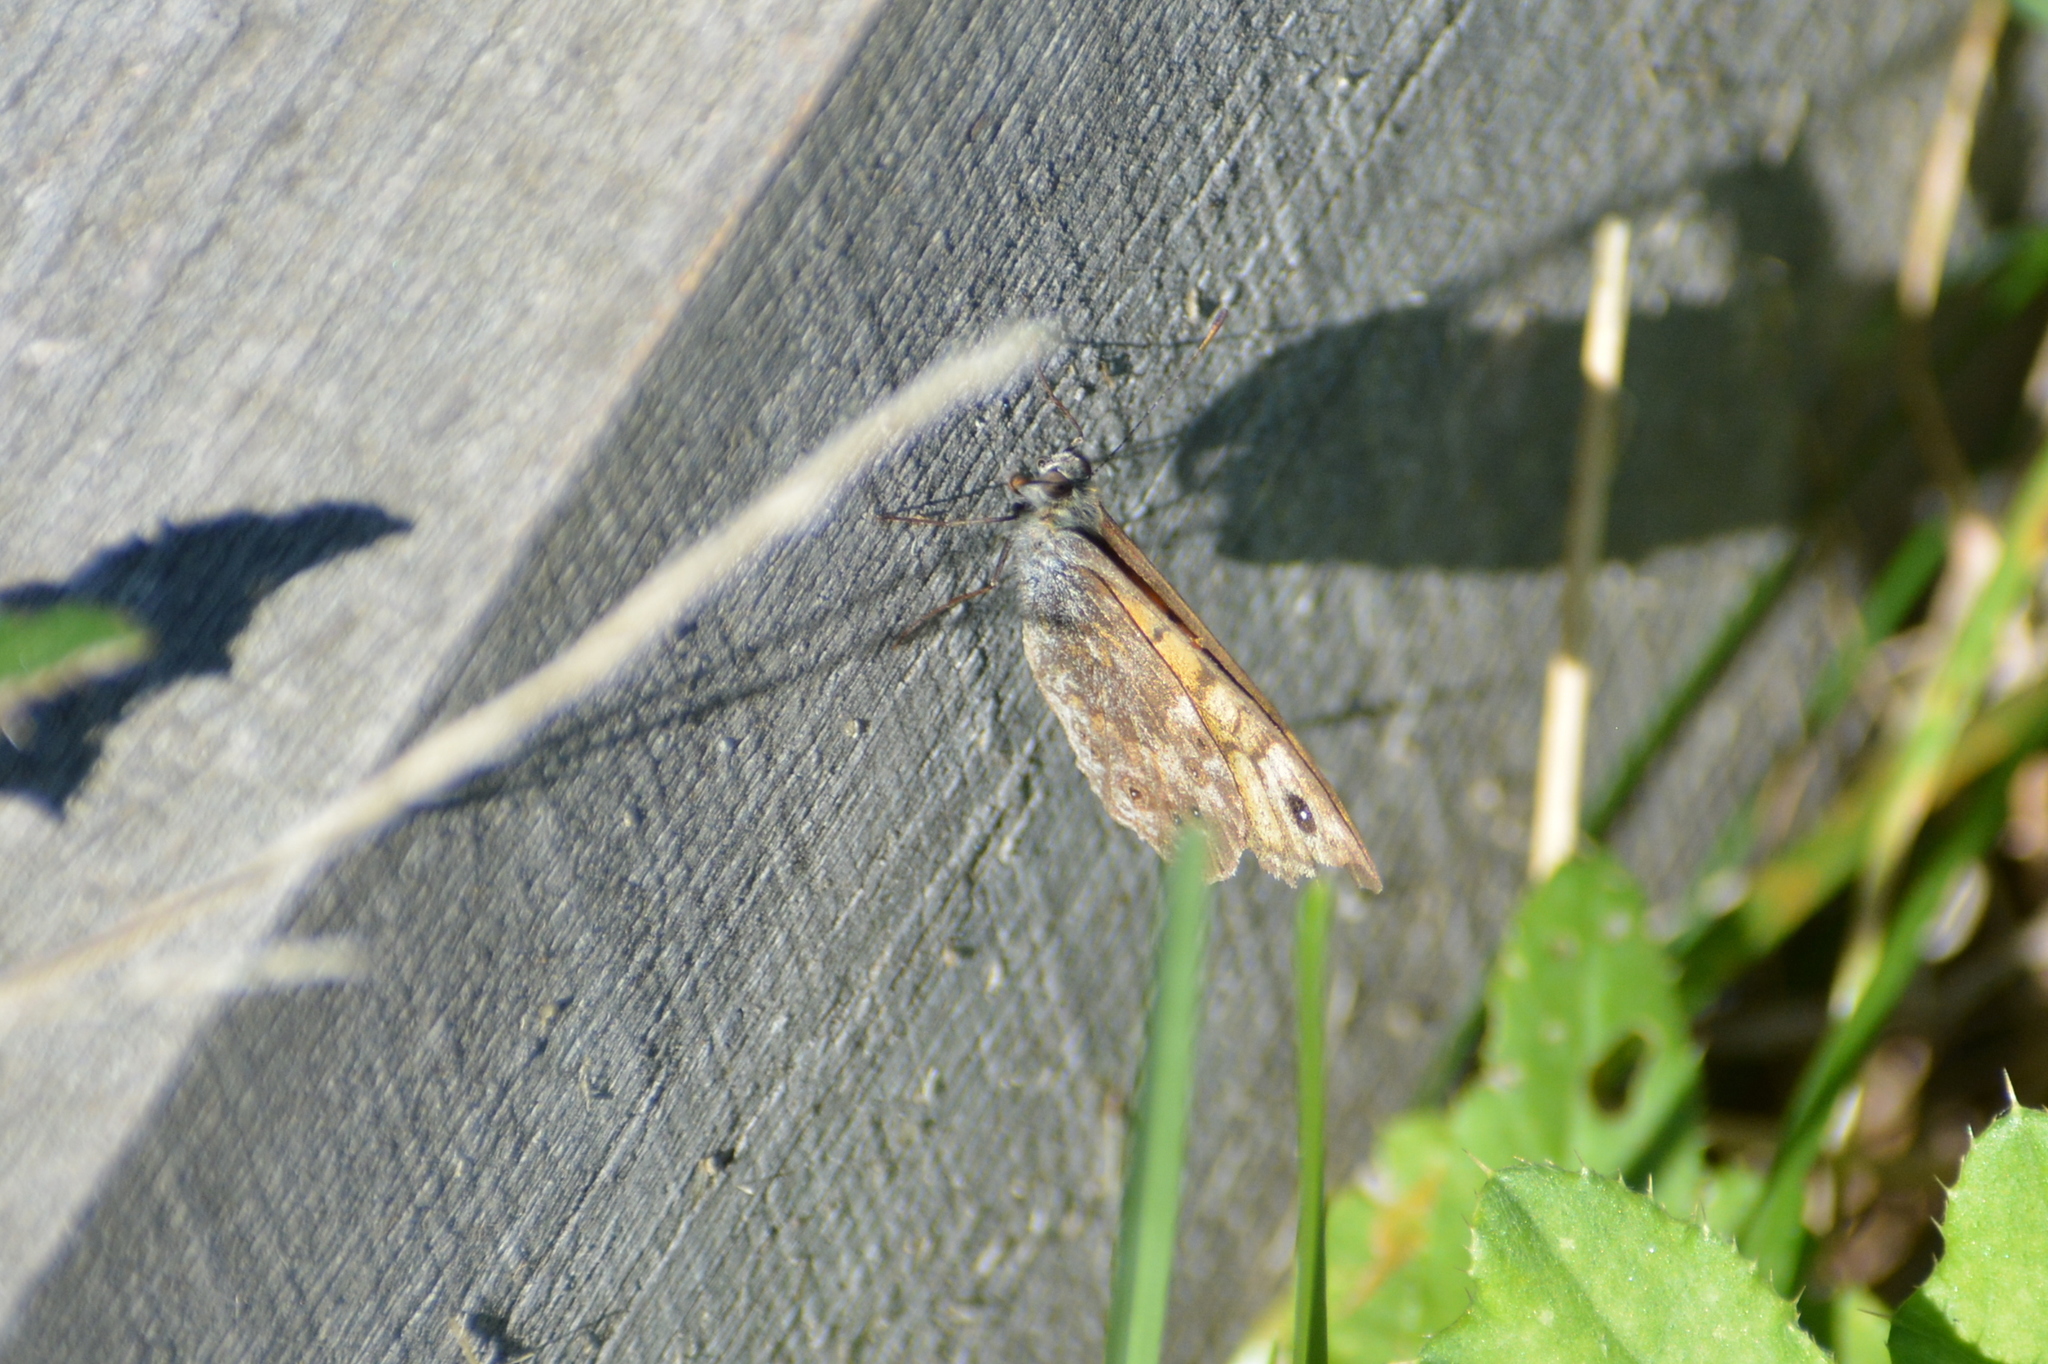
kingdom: Animalia
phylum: Arthropoda
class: Insecta
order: Lepidoptera
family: Nymphalidae
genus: Pararge
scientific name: Pararge Lasiommata megera
